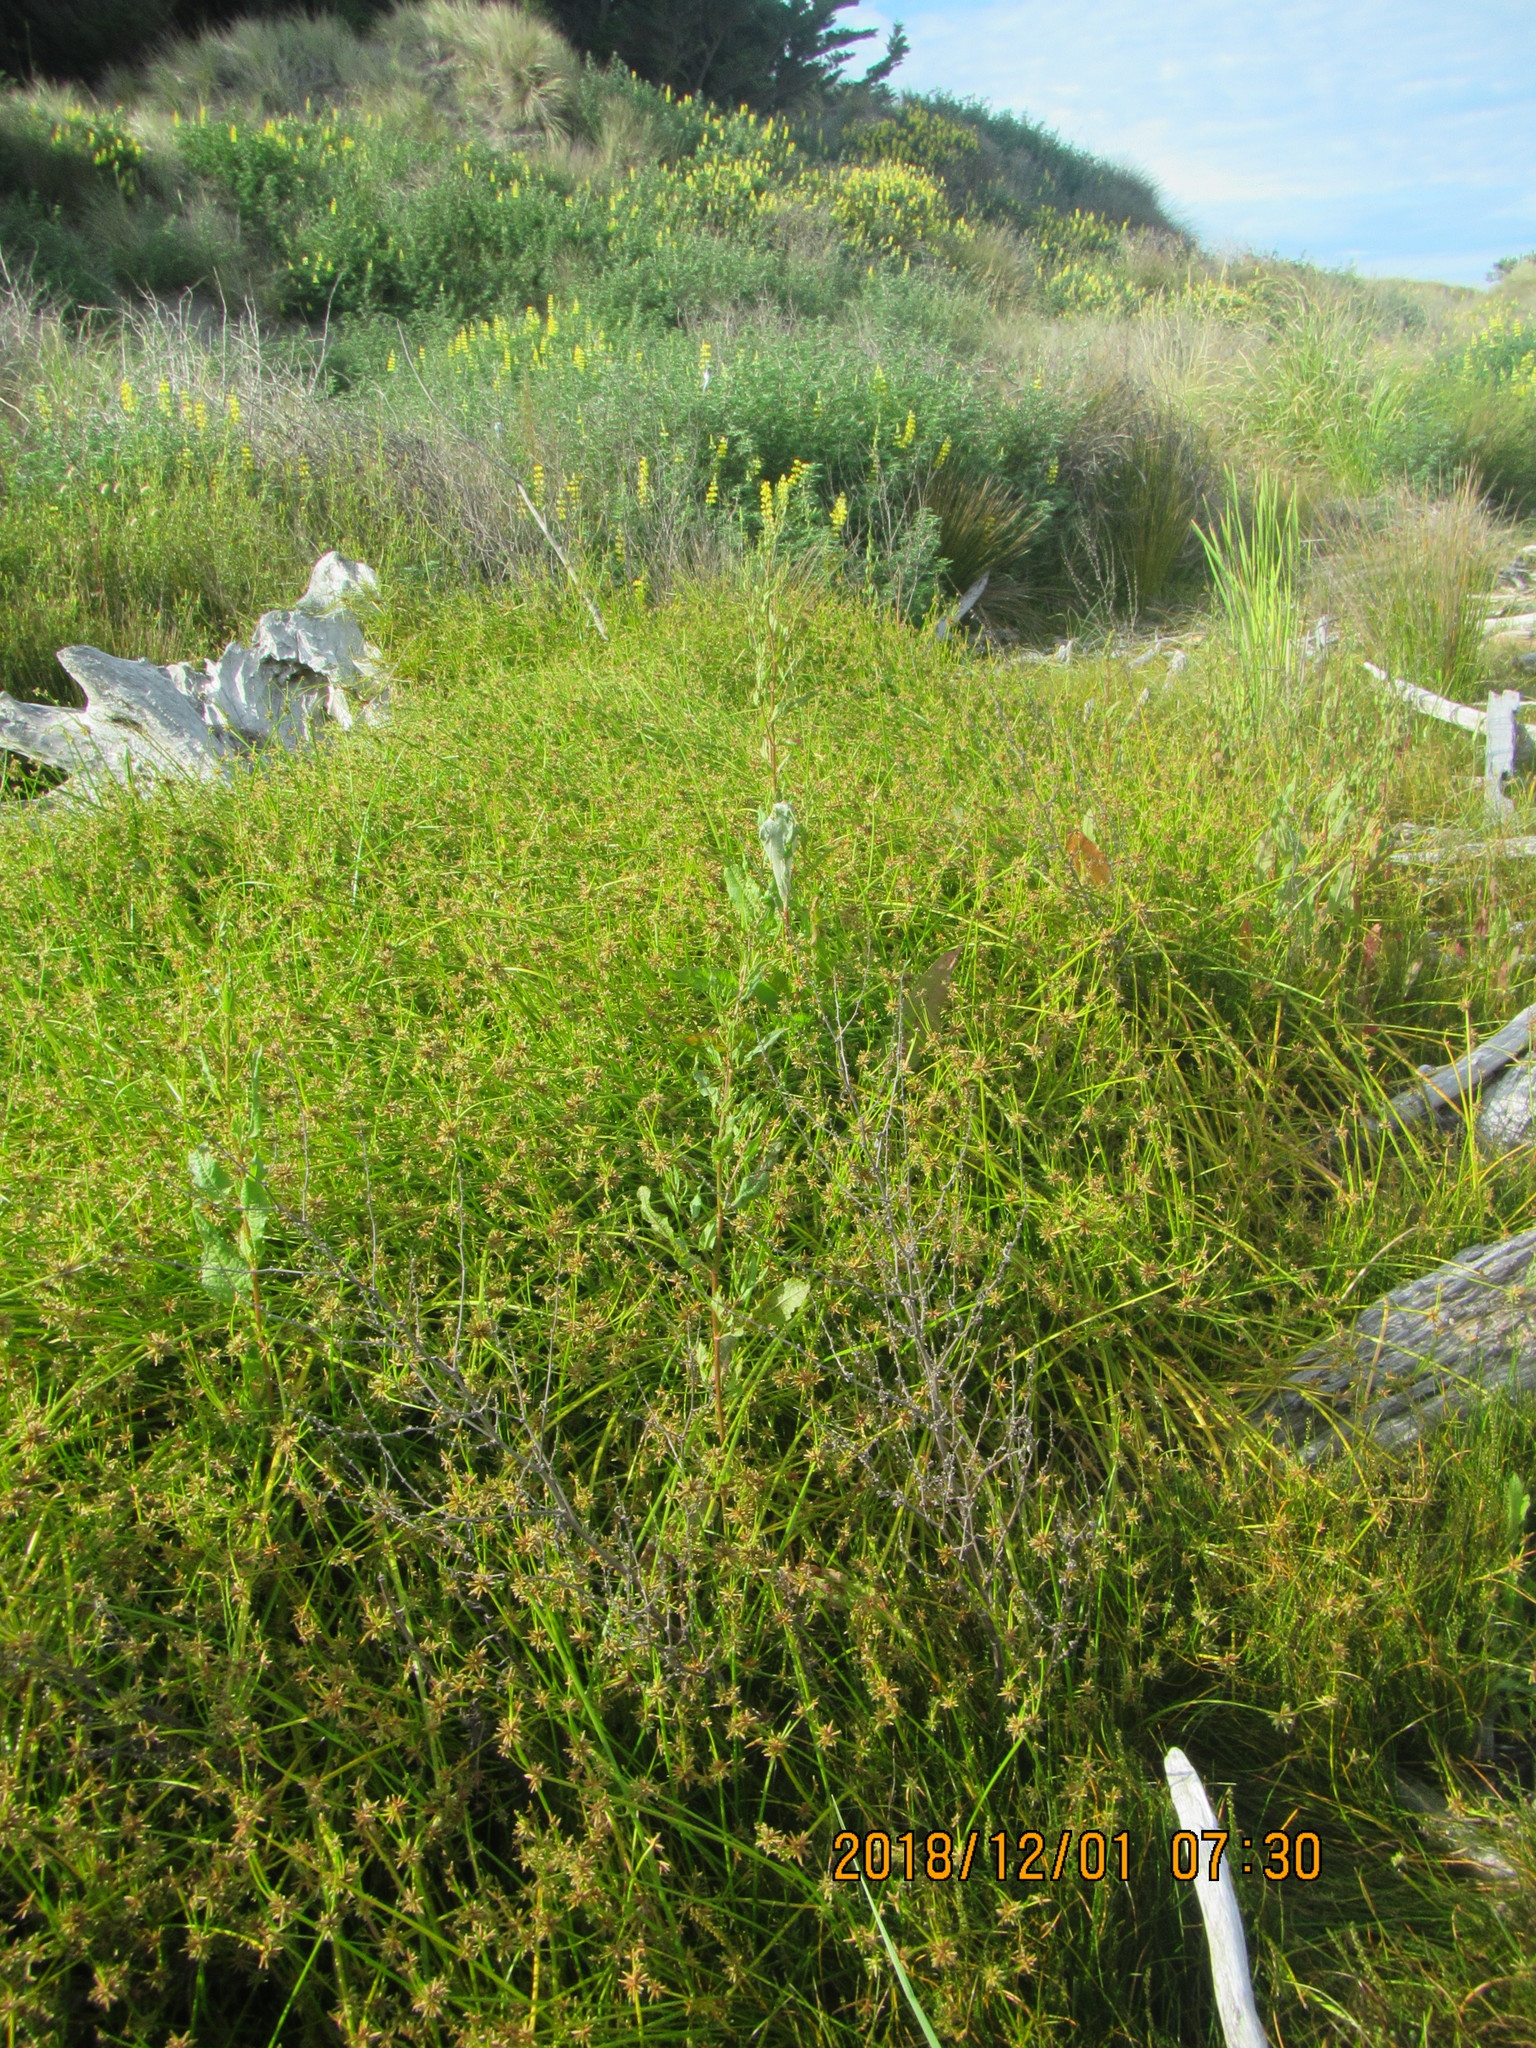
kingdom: Plantae
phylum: Tracheophyta
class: Liliopsida
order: Poales
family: Cyperaceae
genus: Isolepis
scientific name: Isolepis prolifera
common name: Proliferating bulrush
